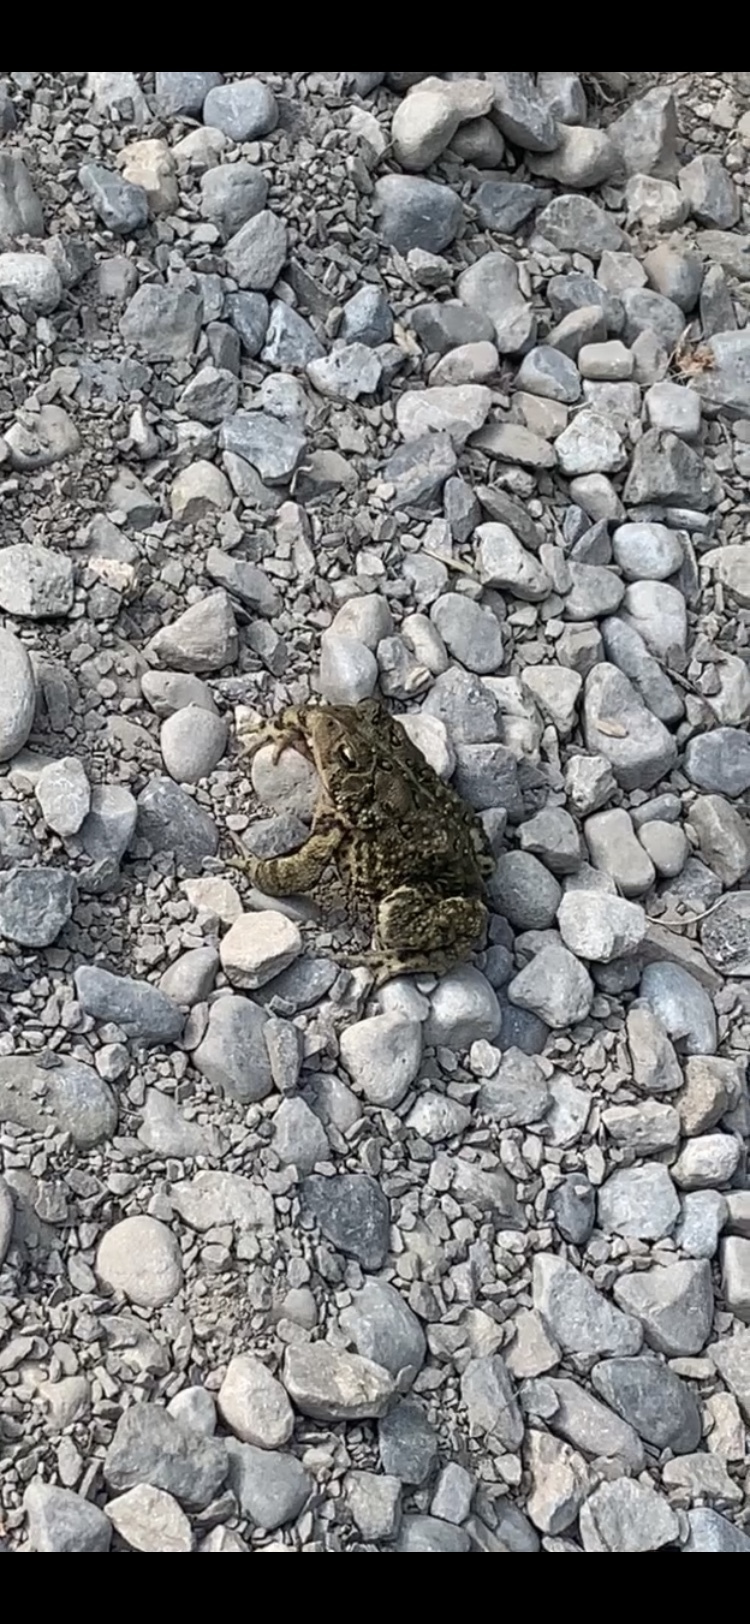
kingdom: Animalia
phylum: Chordata
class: Amphibia
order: Anura
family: Bufonidae
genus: Anaxyrus
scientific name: Anaxyrus americanus
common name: American toad
